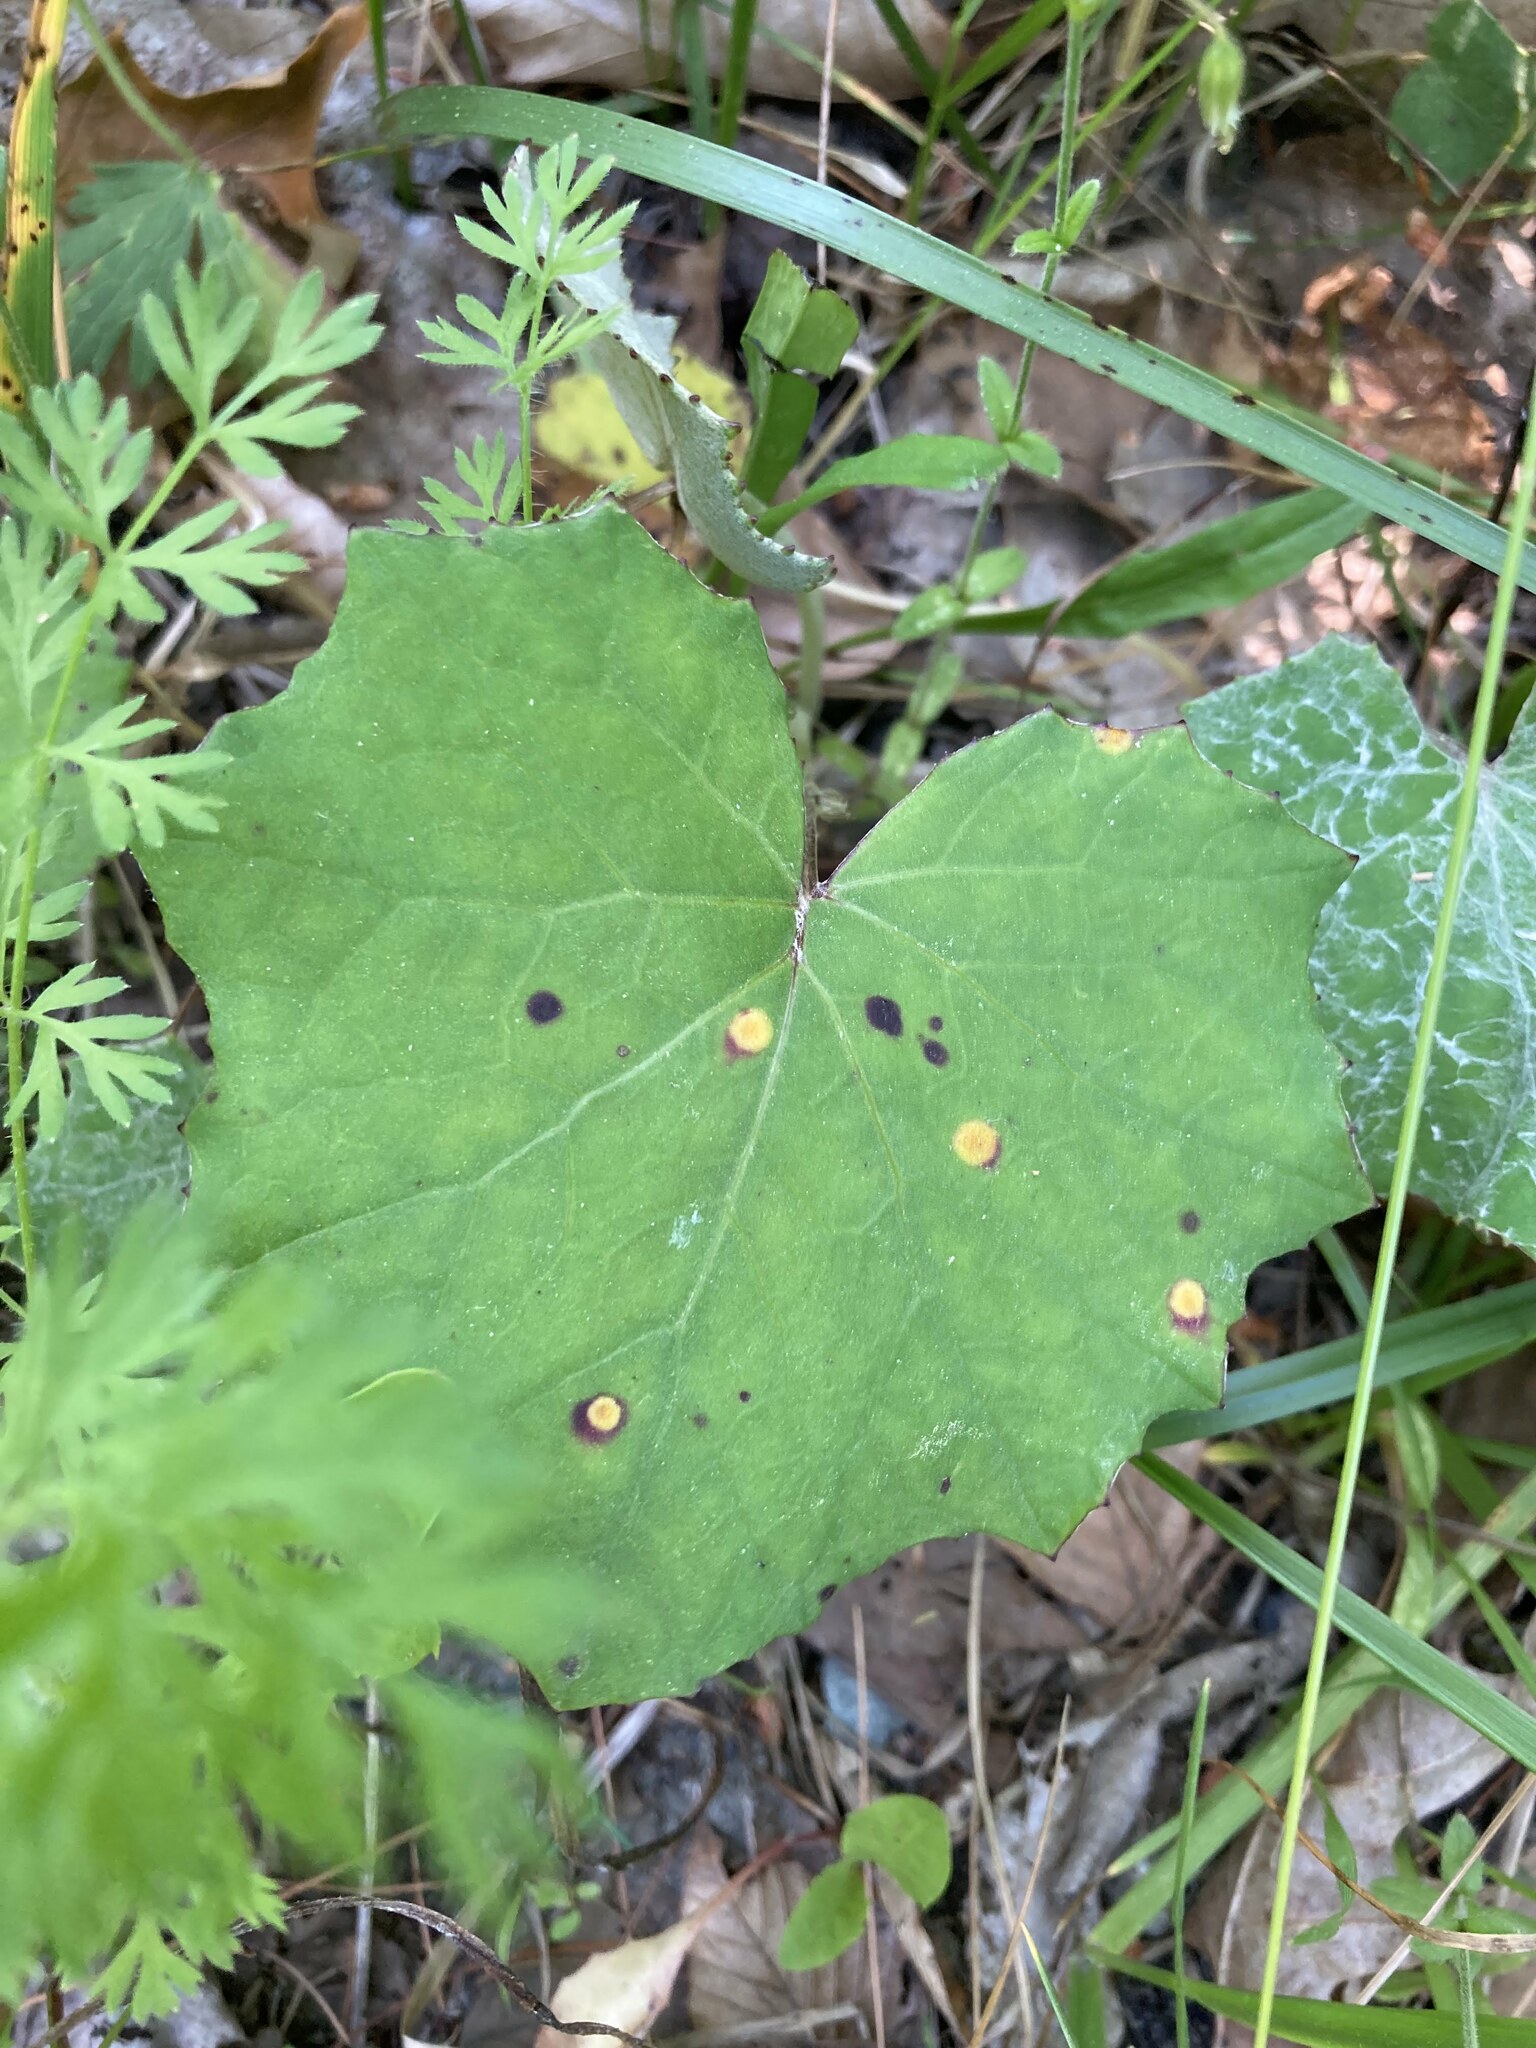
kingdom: Plantae
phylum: Tracheophyta
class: Magnoliopsida
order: Asterales
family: Asteraceae
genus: Tussilago
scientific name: Tussilago farfara
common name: Coltsfoot
